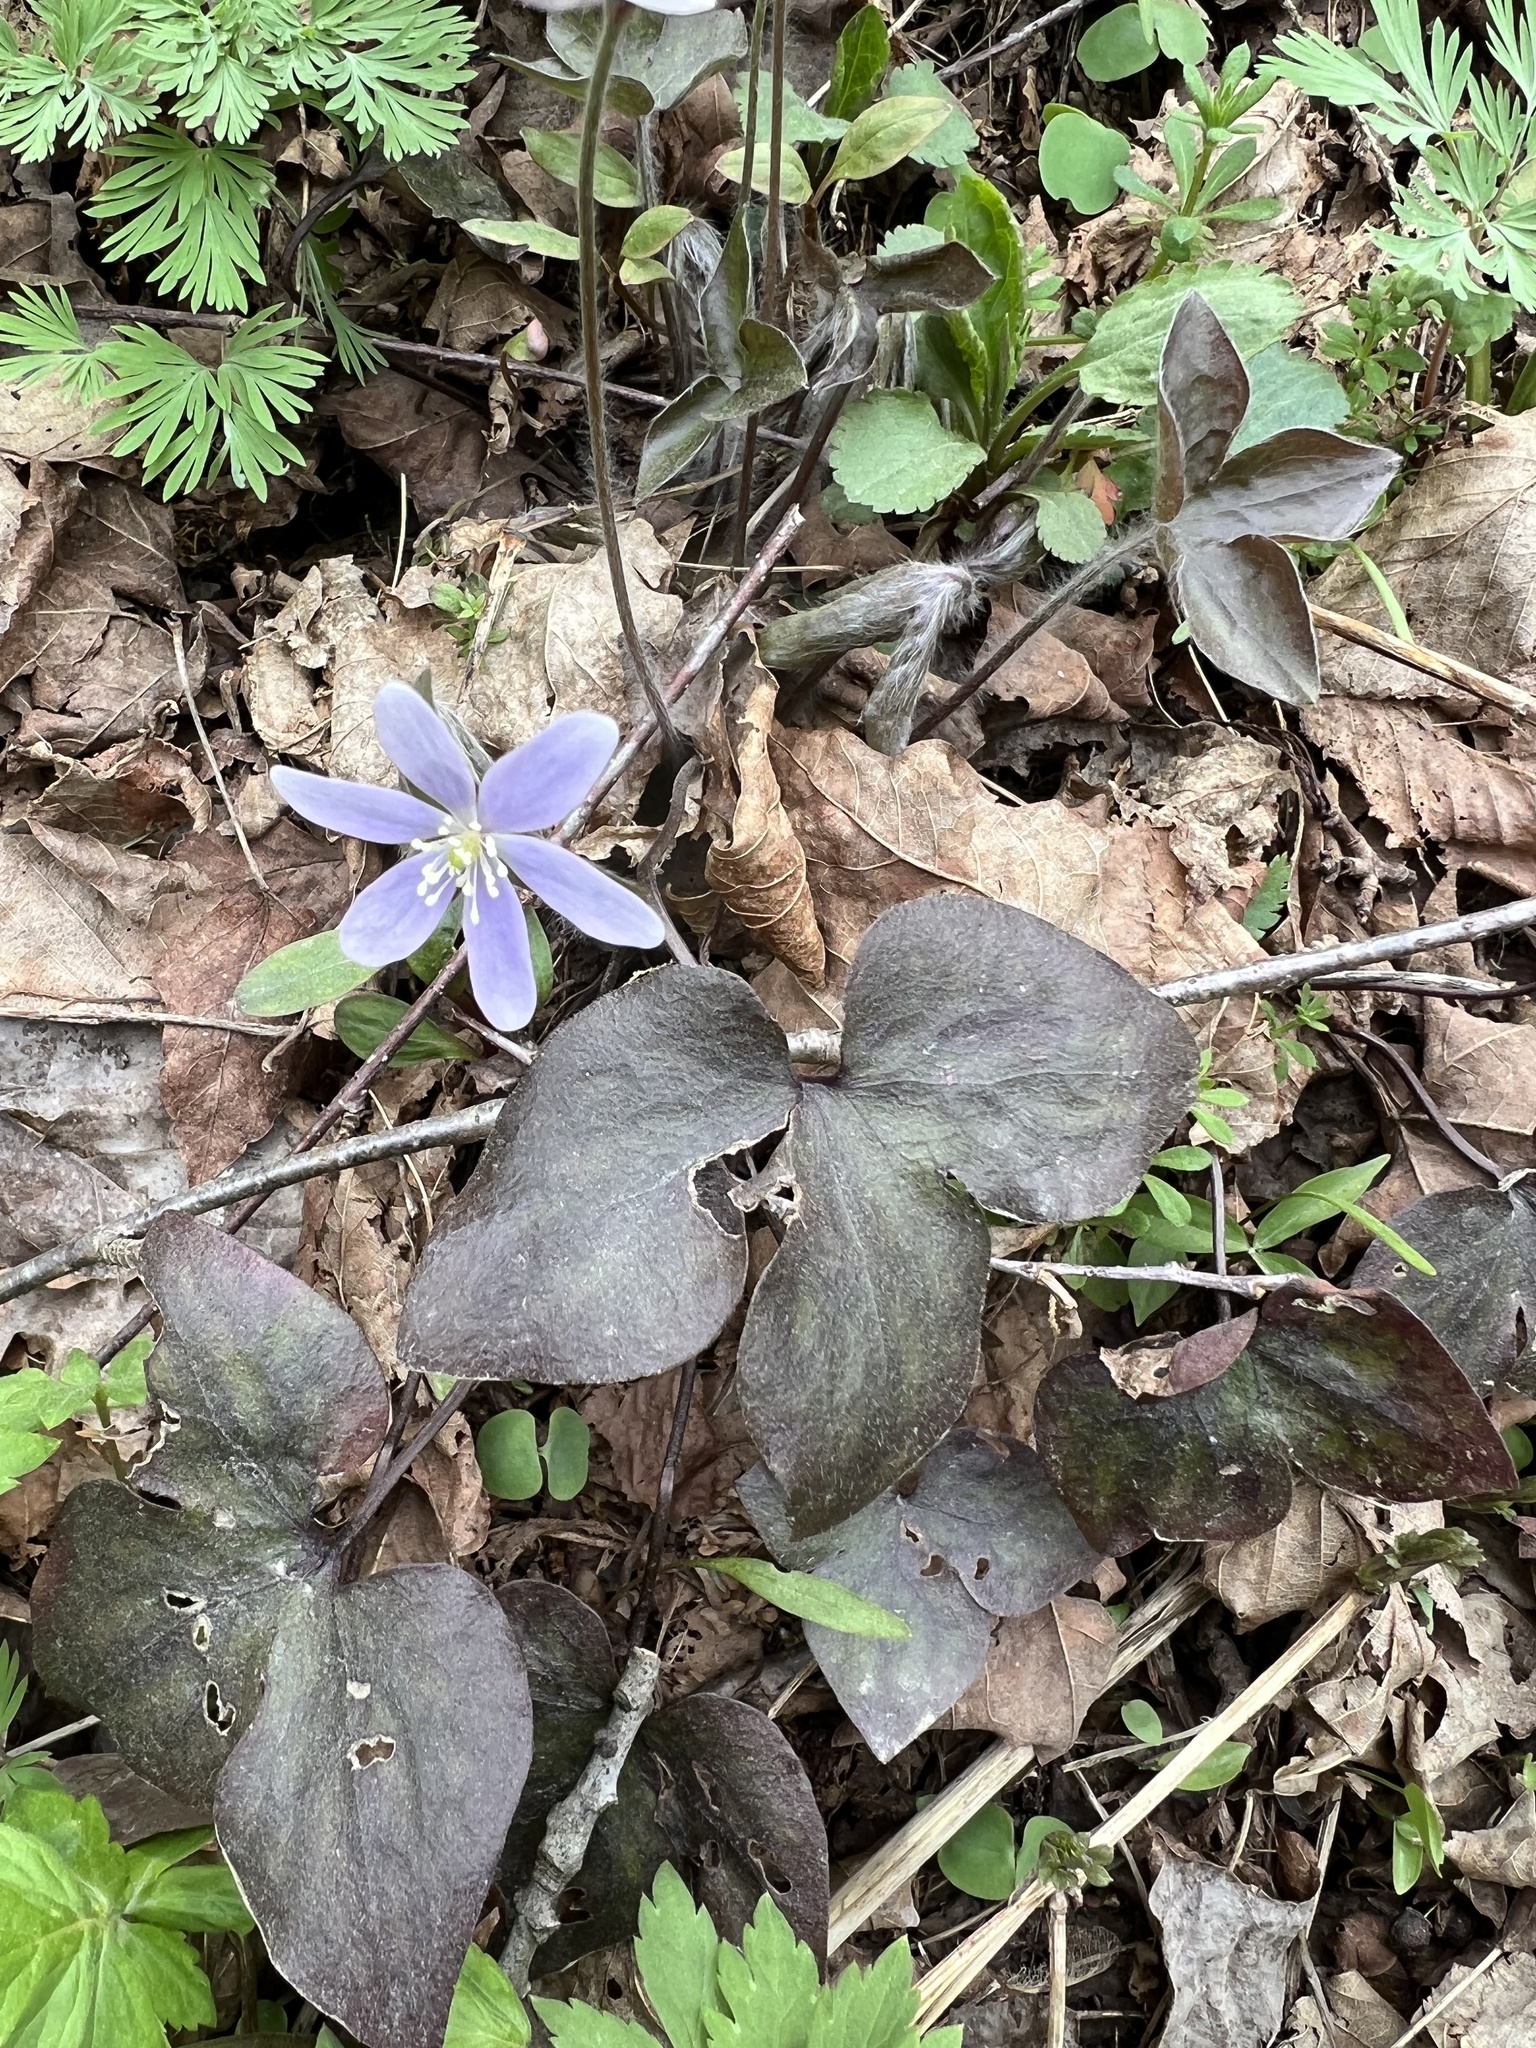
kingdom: Plantae
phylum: Tracheophyta
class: Magnoliopsida
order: Ranunculales
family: Ranunculaceae
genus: Hepatica
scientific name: Hepatica acutiloba
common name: Sharp-lobed hepatica
